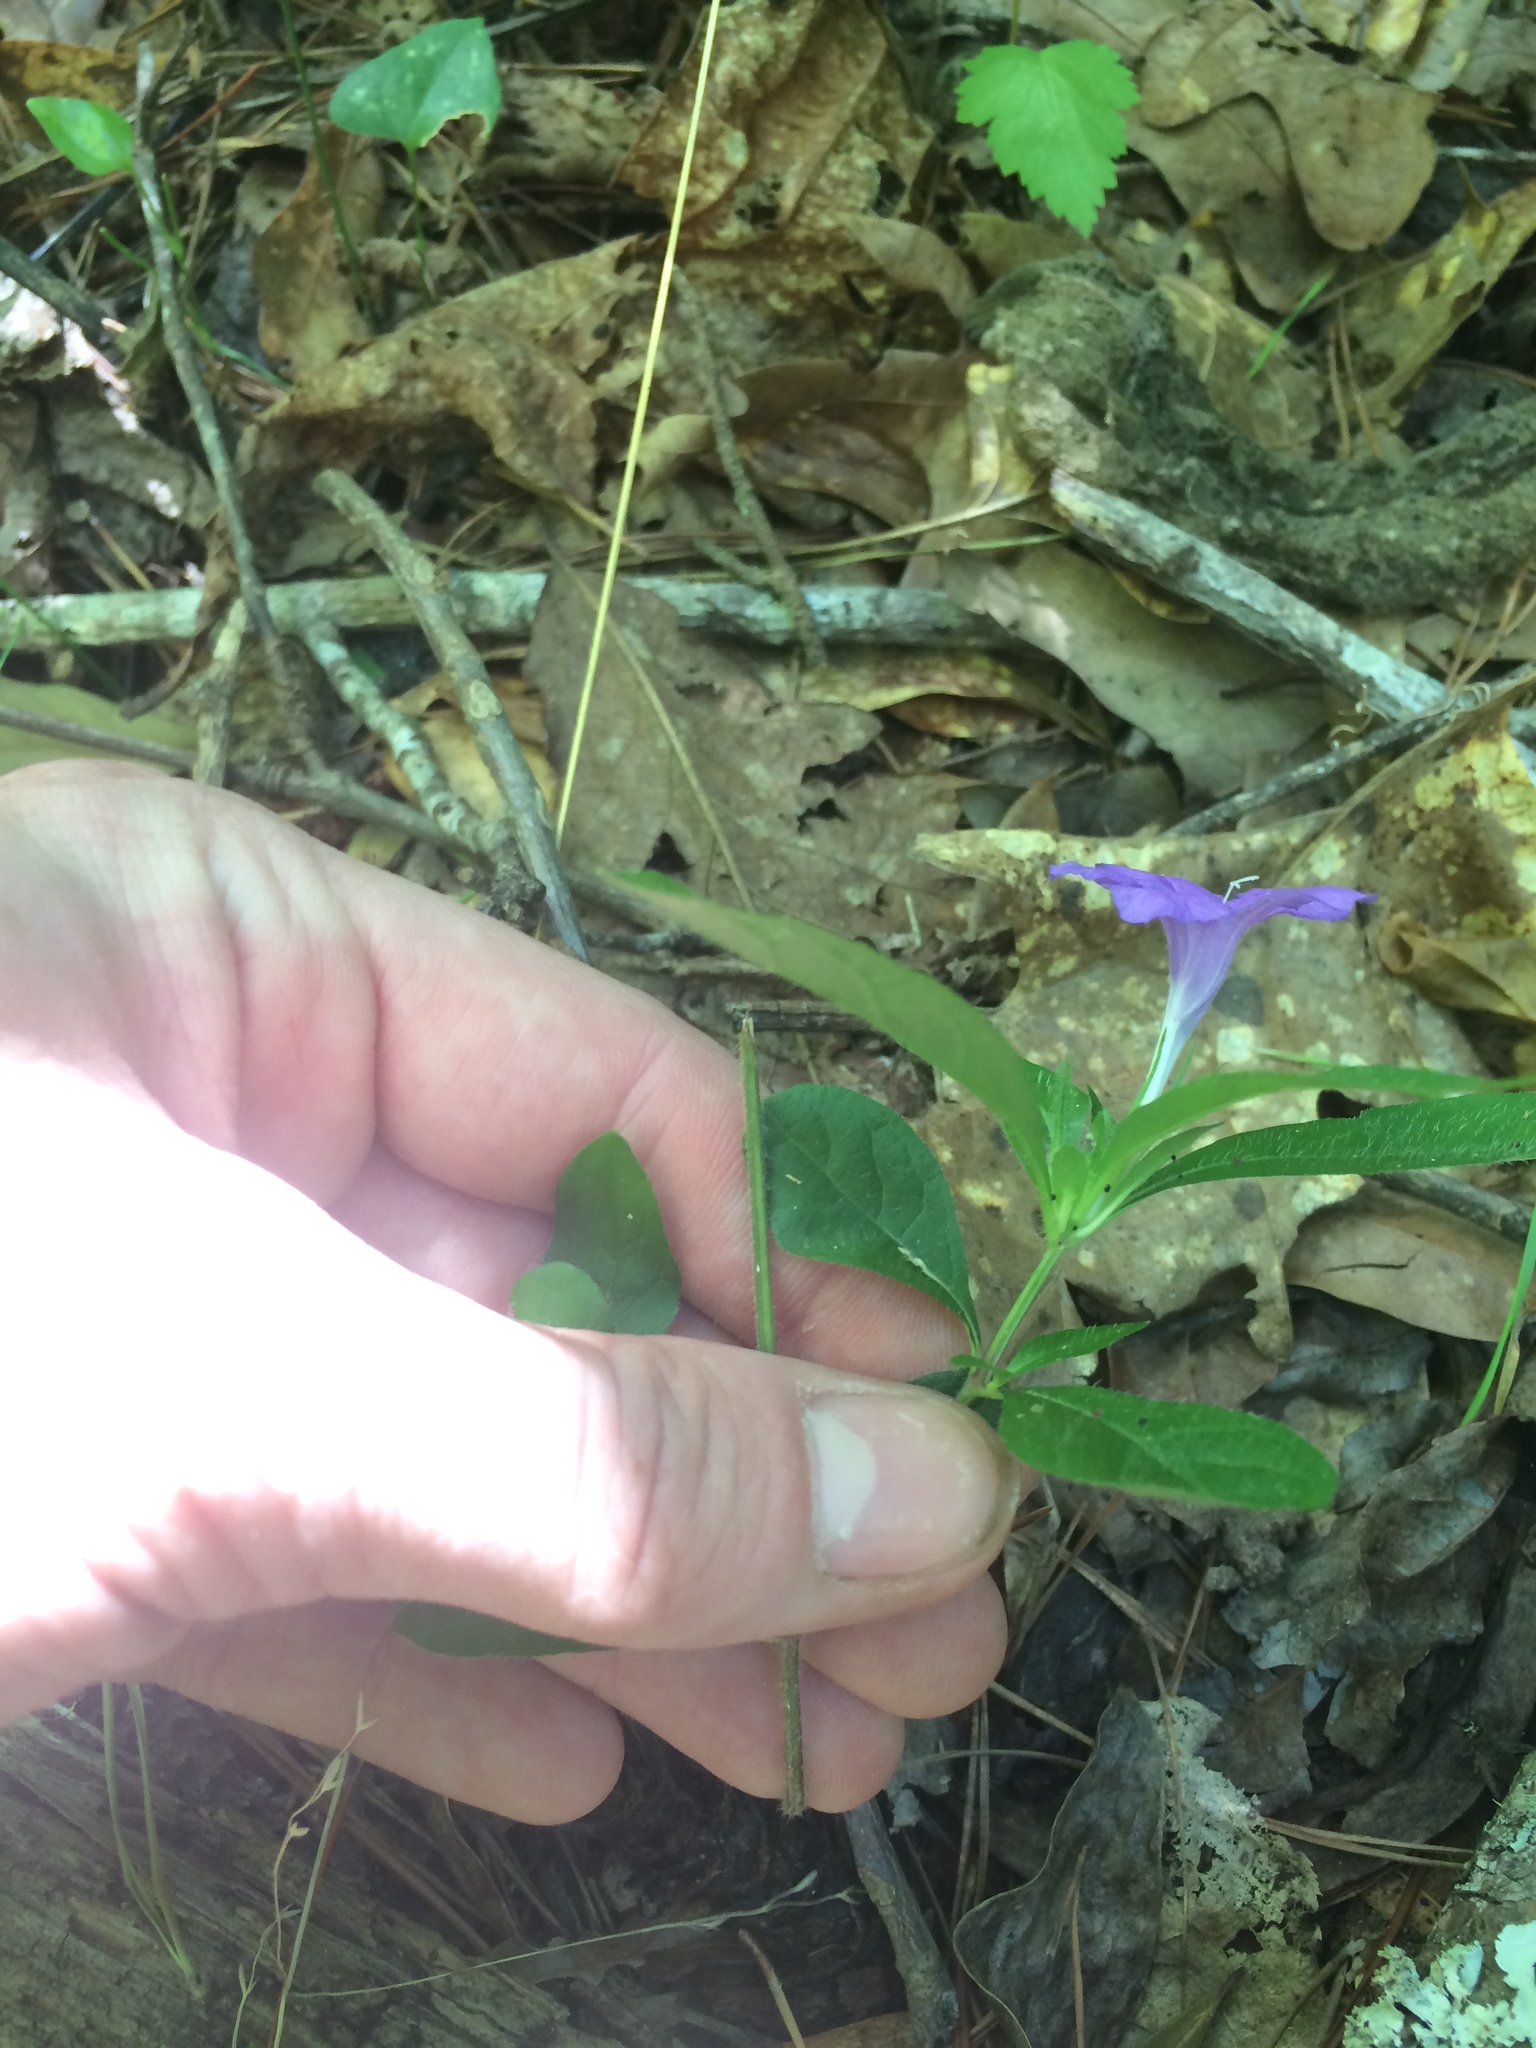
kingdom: Plantae
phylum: Tracheophyta
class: Magnoliopsida
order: Lamiales
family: Acanthaceae
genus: Ruellia
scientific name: Ruellia caroliniensis
